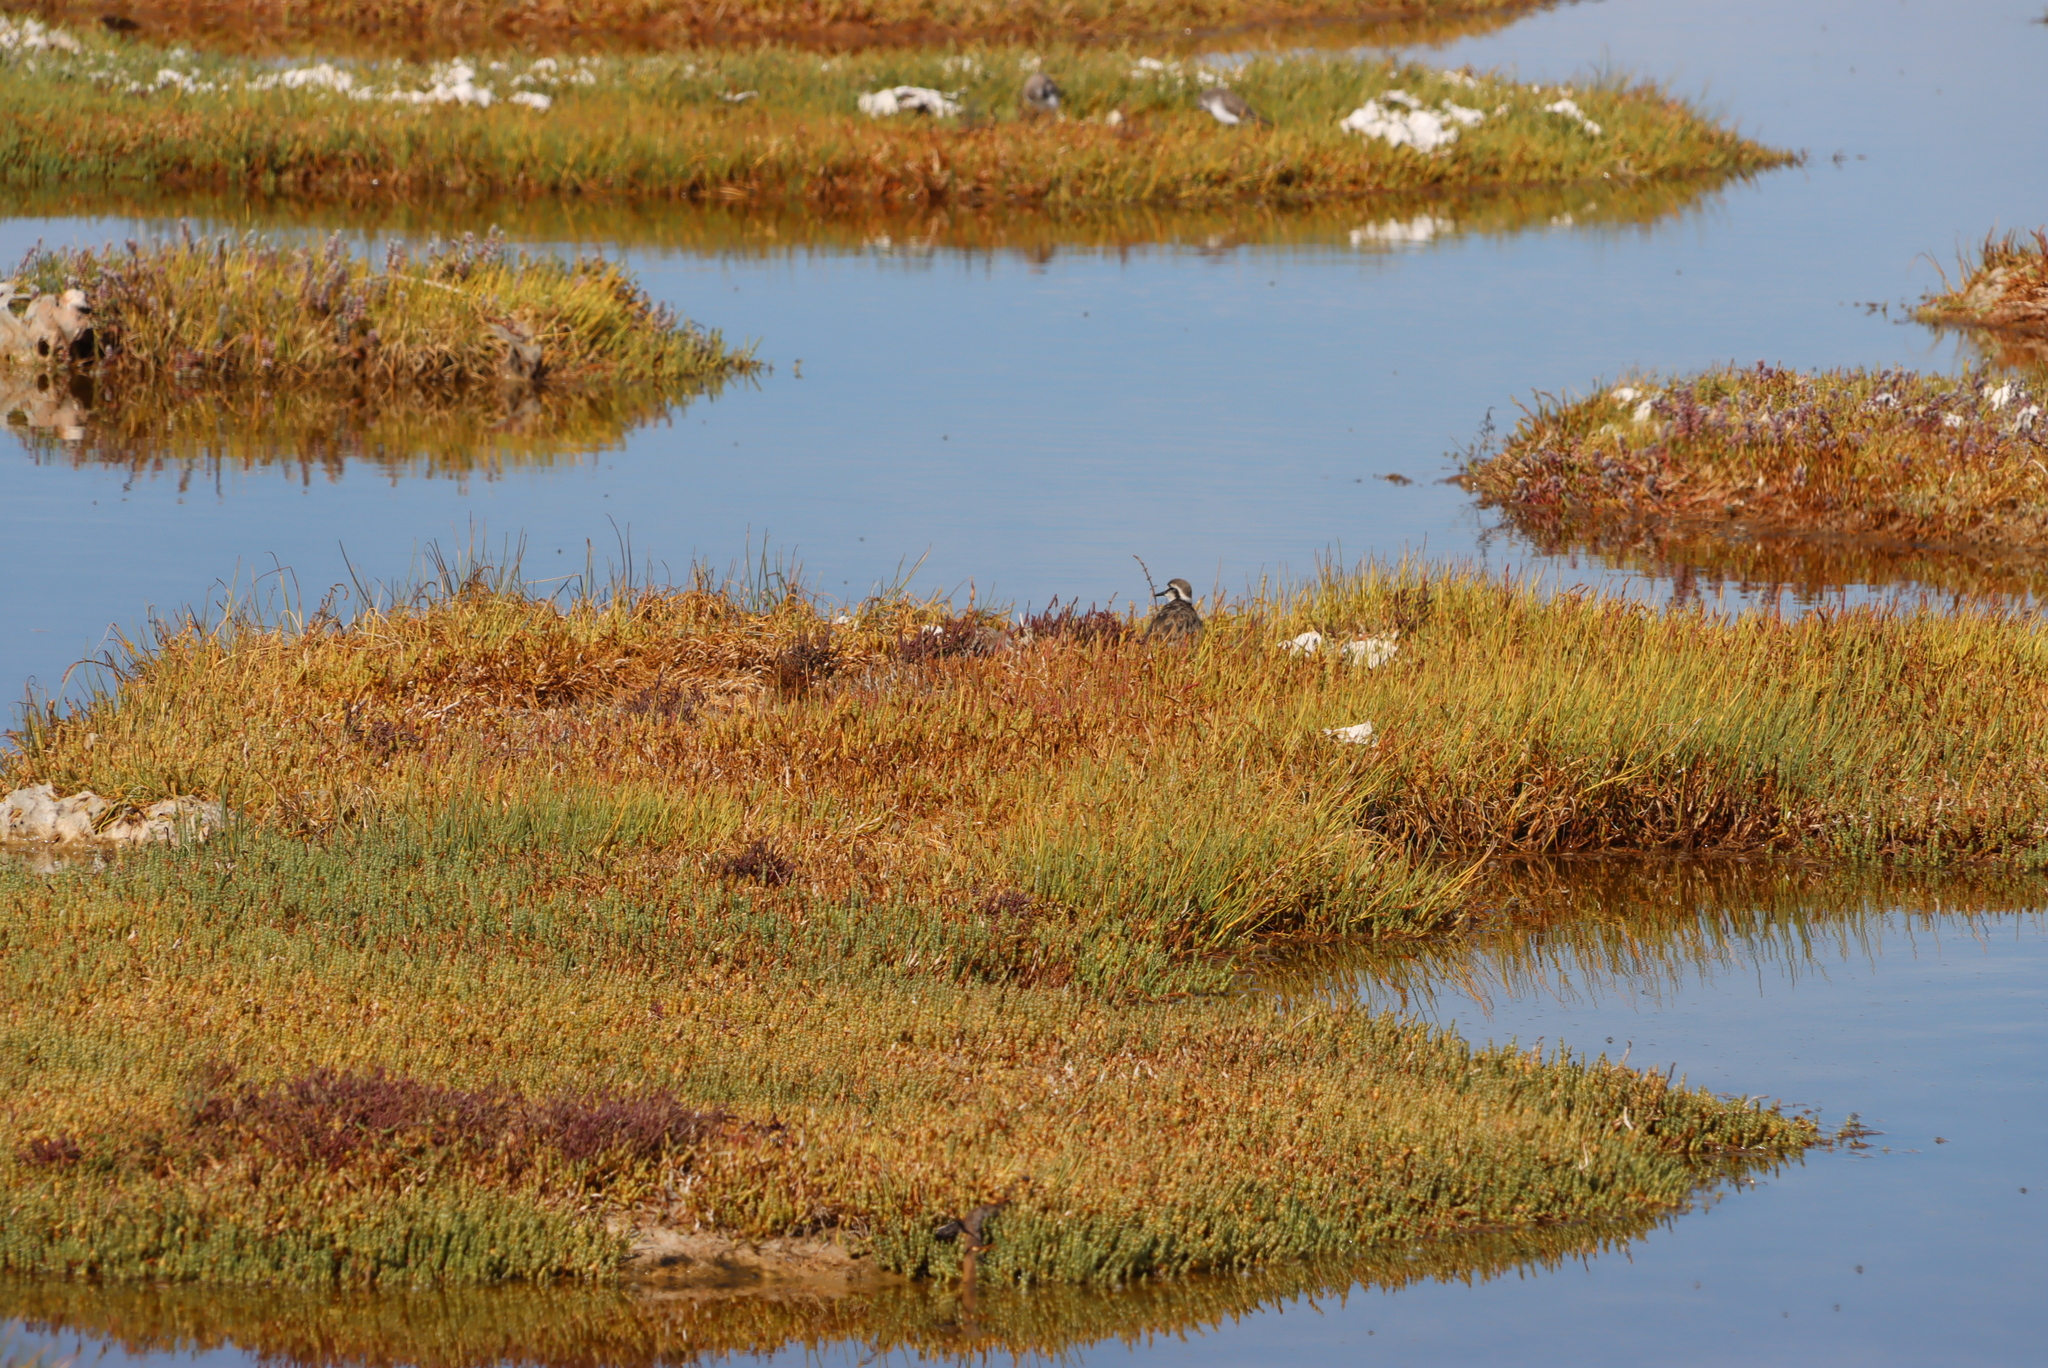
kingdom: Animalia
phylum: Chordata
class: Aves
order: Charadriiformes
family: Charadriidae
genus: Anarhynchus
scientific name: Anarhynchus
